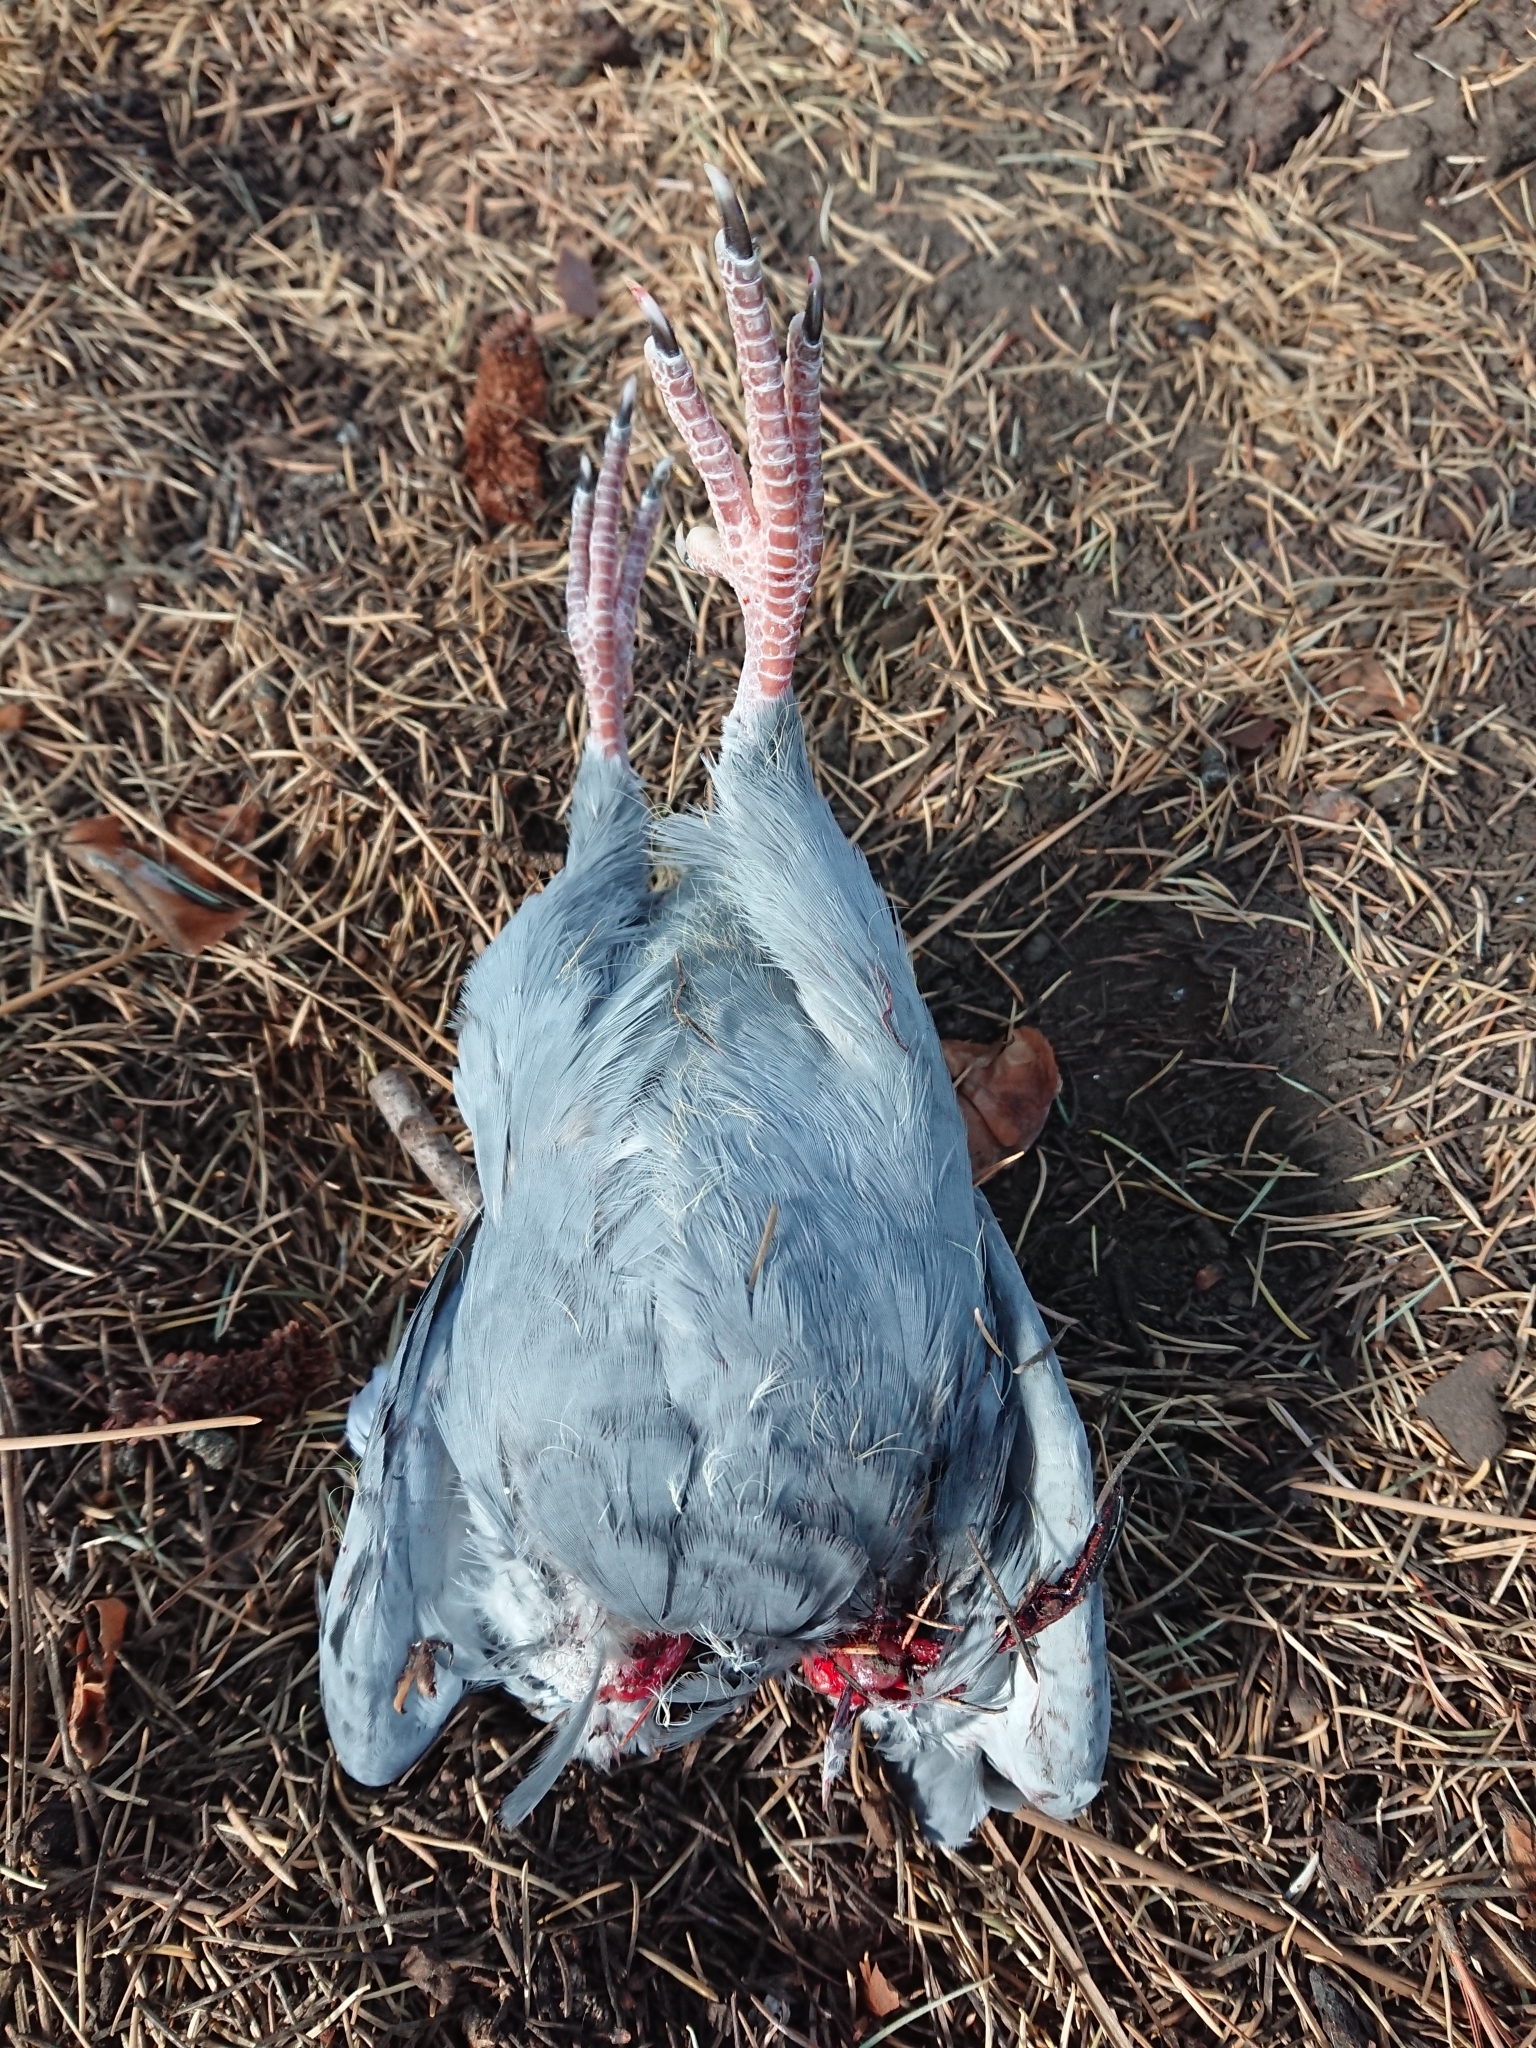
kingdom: Animalia
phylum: Chordata
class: Aves
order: Columbiformes
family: Columbidae
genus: Columba
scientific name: Columba livia
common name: Rock pigeon
